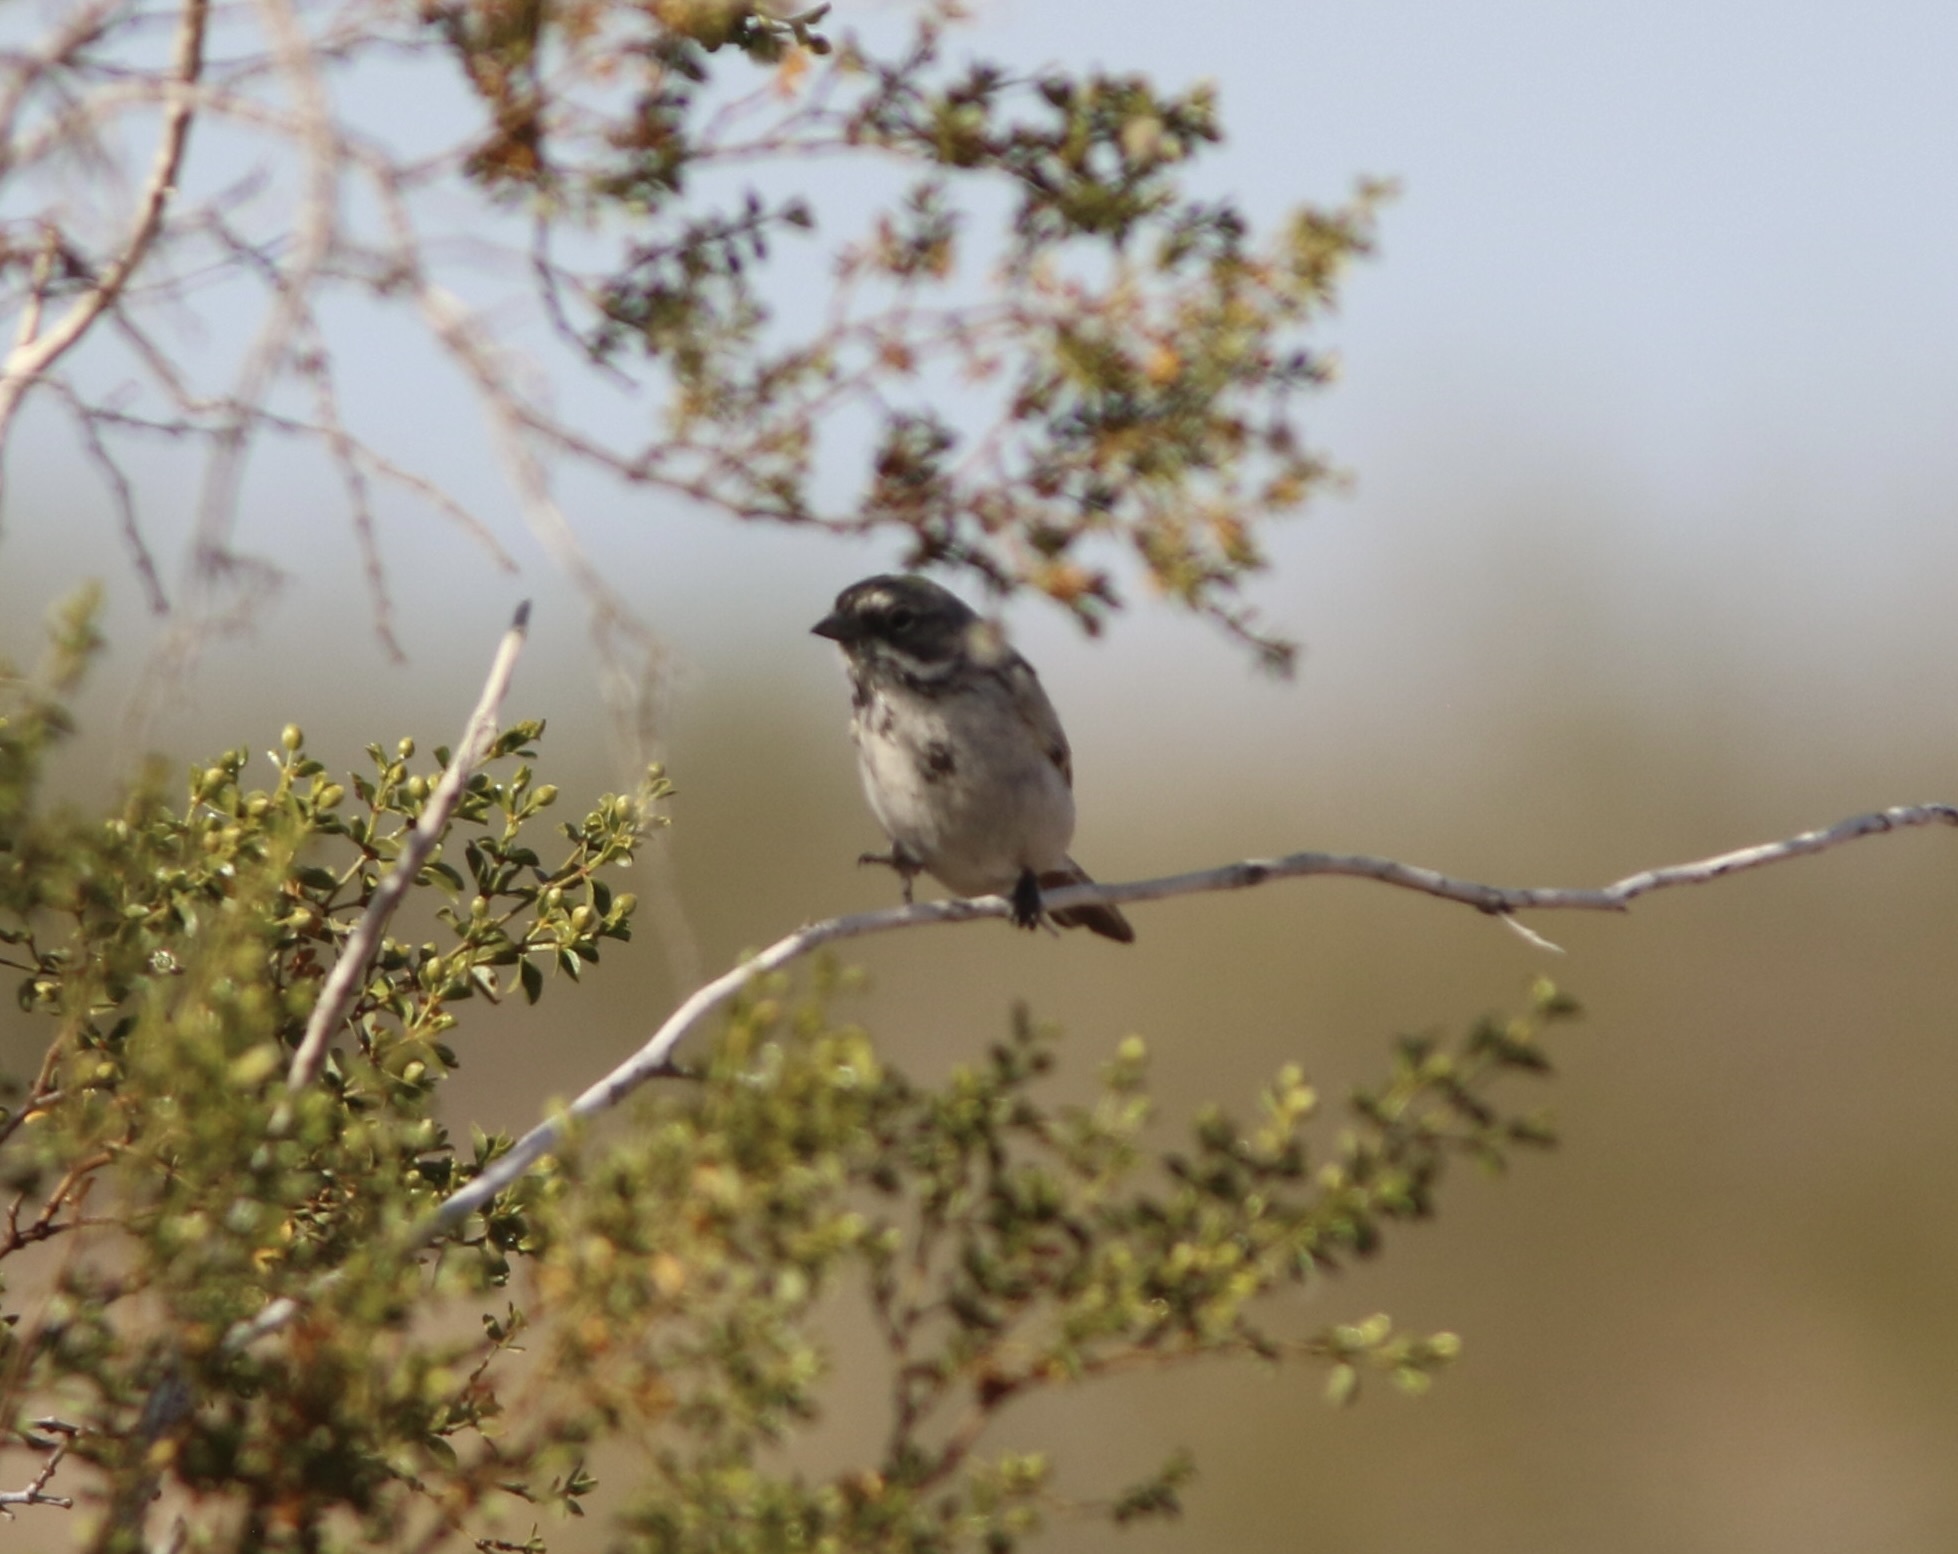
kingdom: Animalia
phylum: Chordata
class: Aves
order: Passeriformes
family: Passerellidae
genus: Artemisiospiza
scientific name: Artemisiospiza belli
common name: Bell's sparrow
